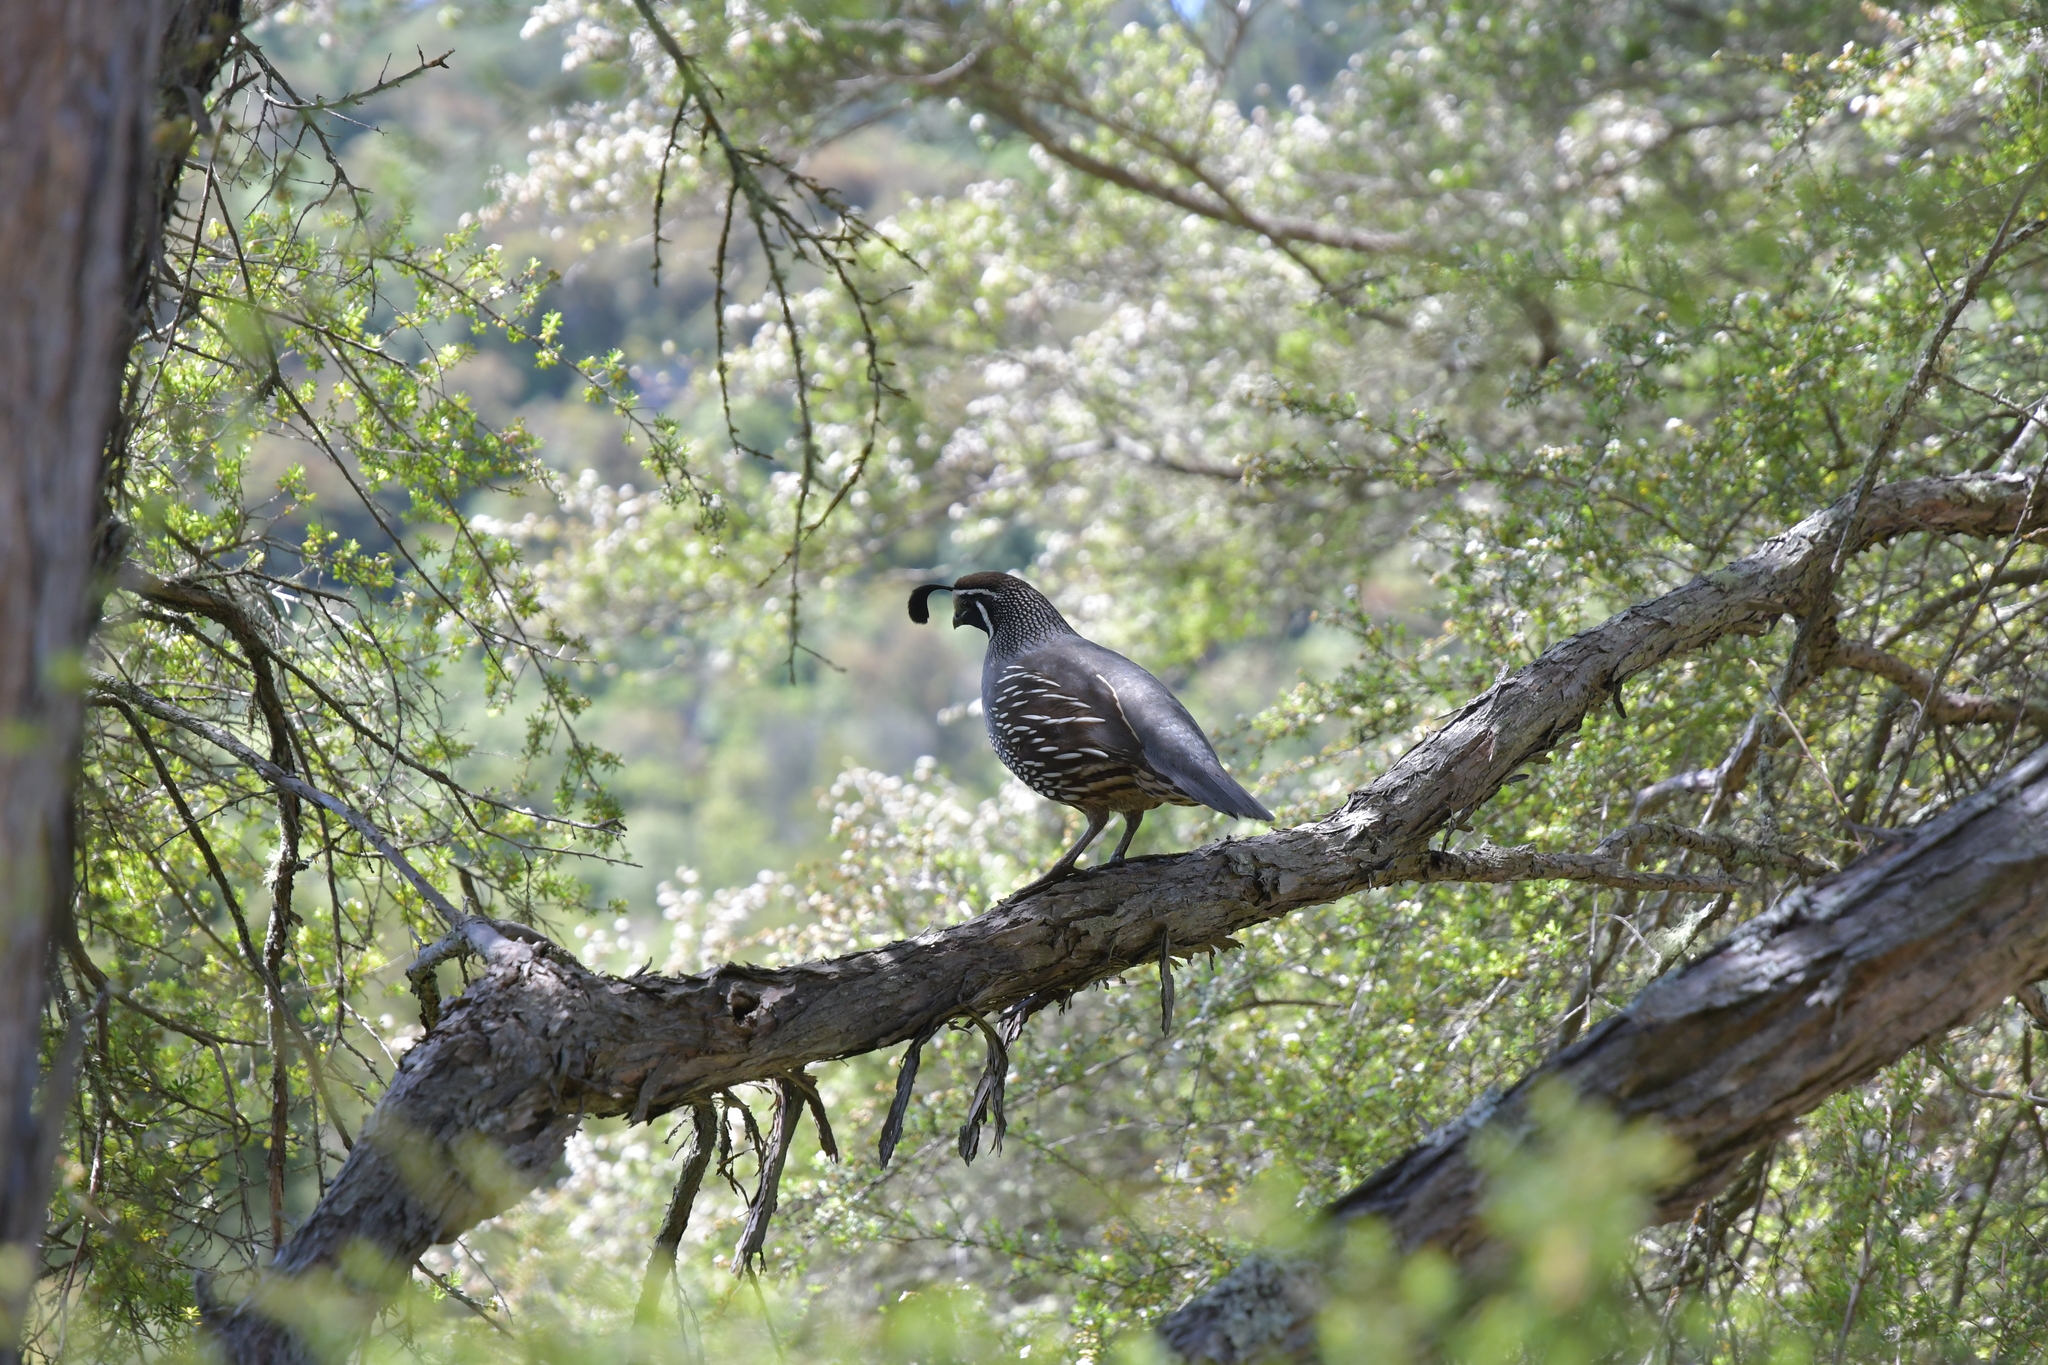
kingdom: Animalia
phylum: Chordata
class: Aves
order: Galliformes
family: Odontophoridae
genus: Callipepla
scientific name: Callipepla californica
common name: California quail
